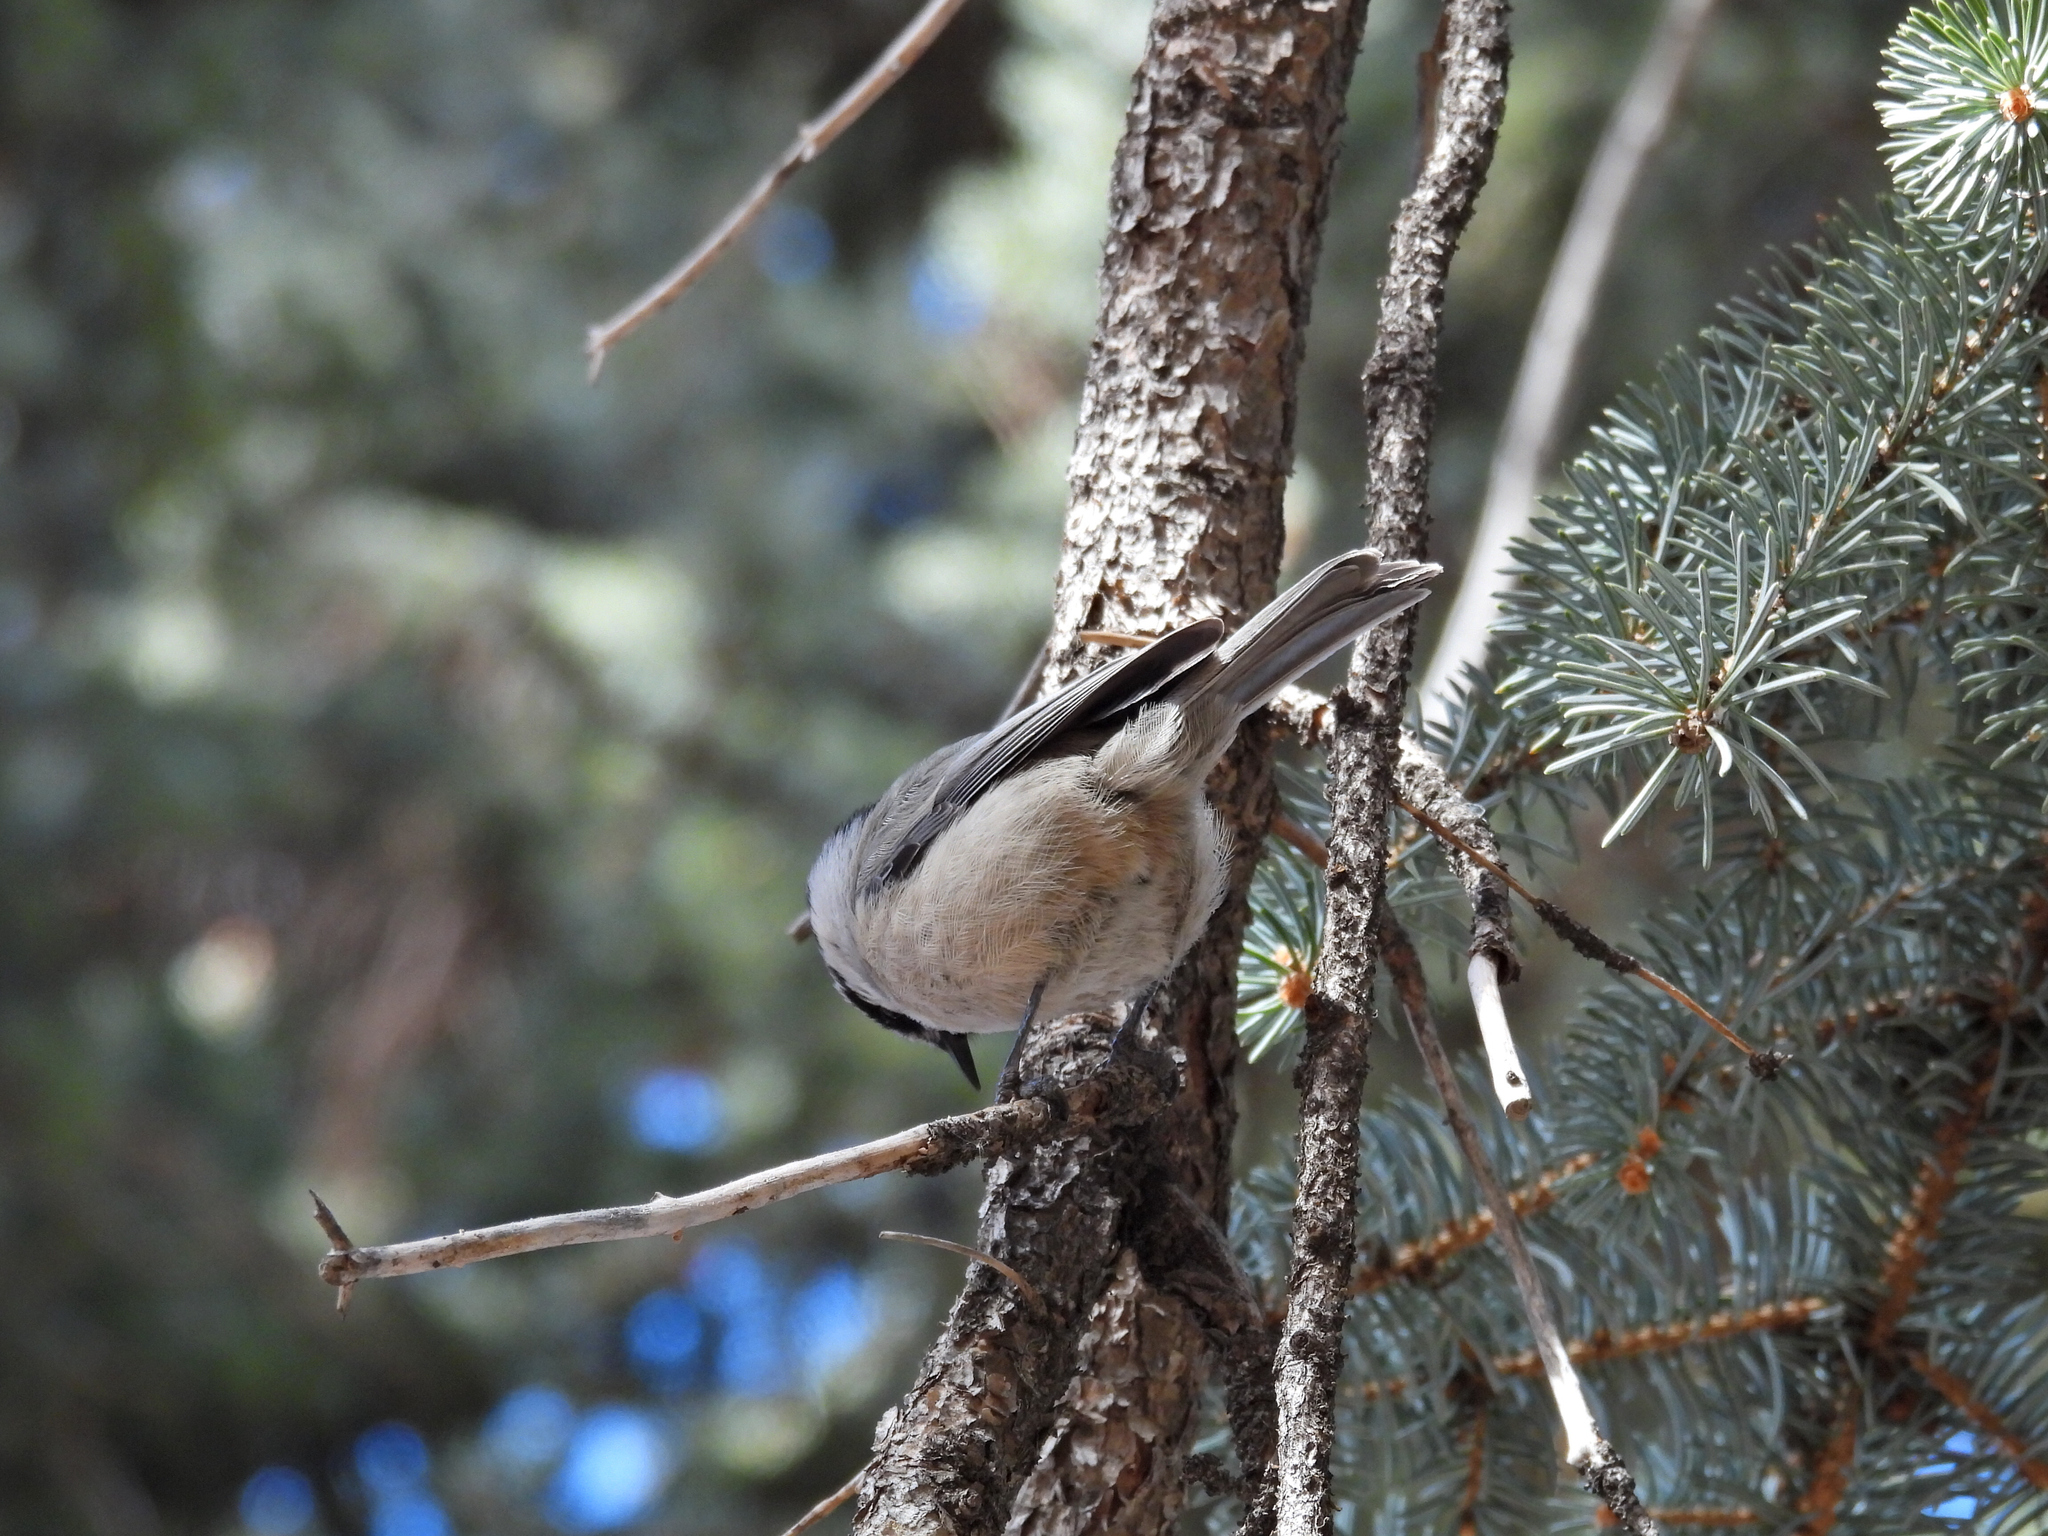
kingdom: Animalia
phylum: Chordata
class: Aves
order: Passeriformes
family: Paridae
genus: Poecile
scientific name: Poecile gambeli
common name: Mountain chickadee
